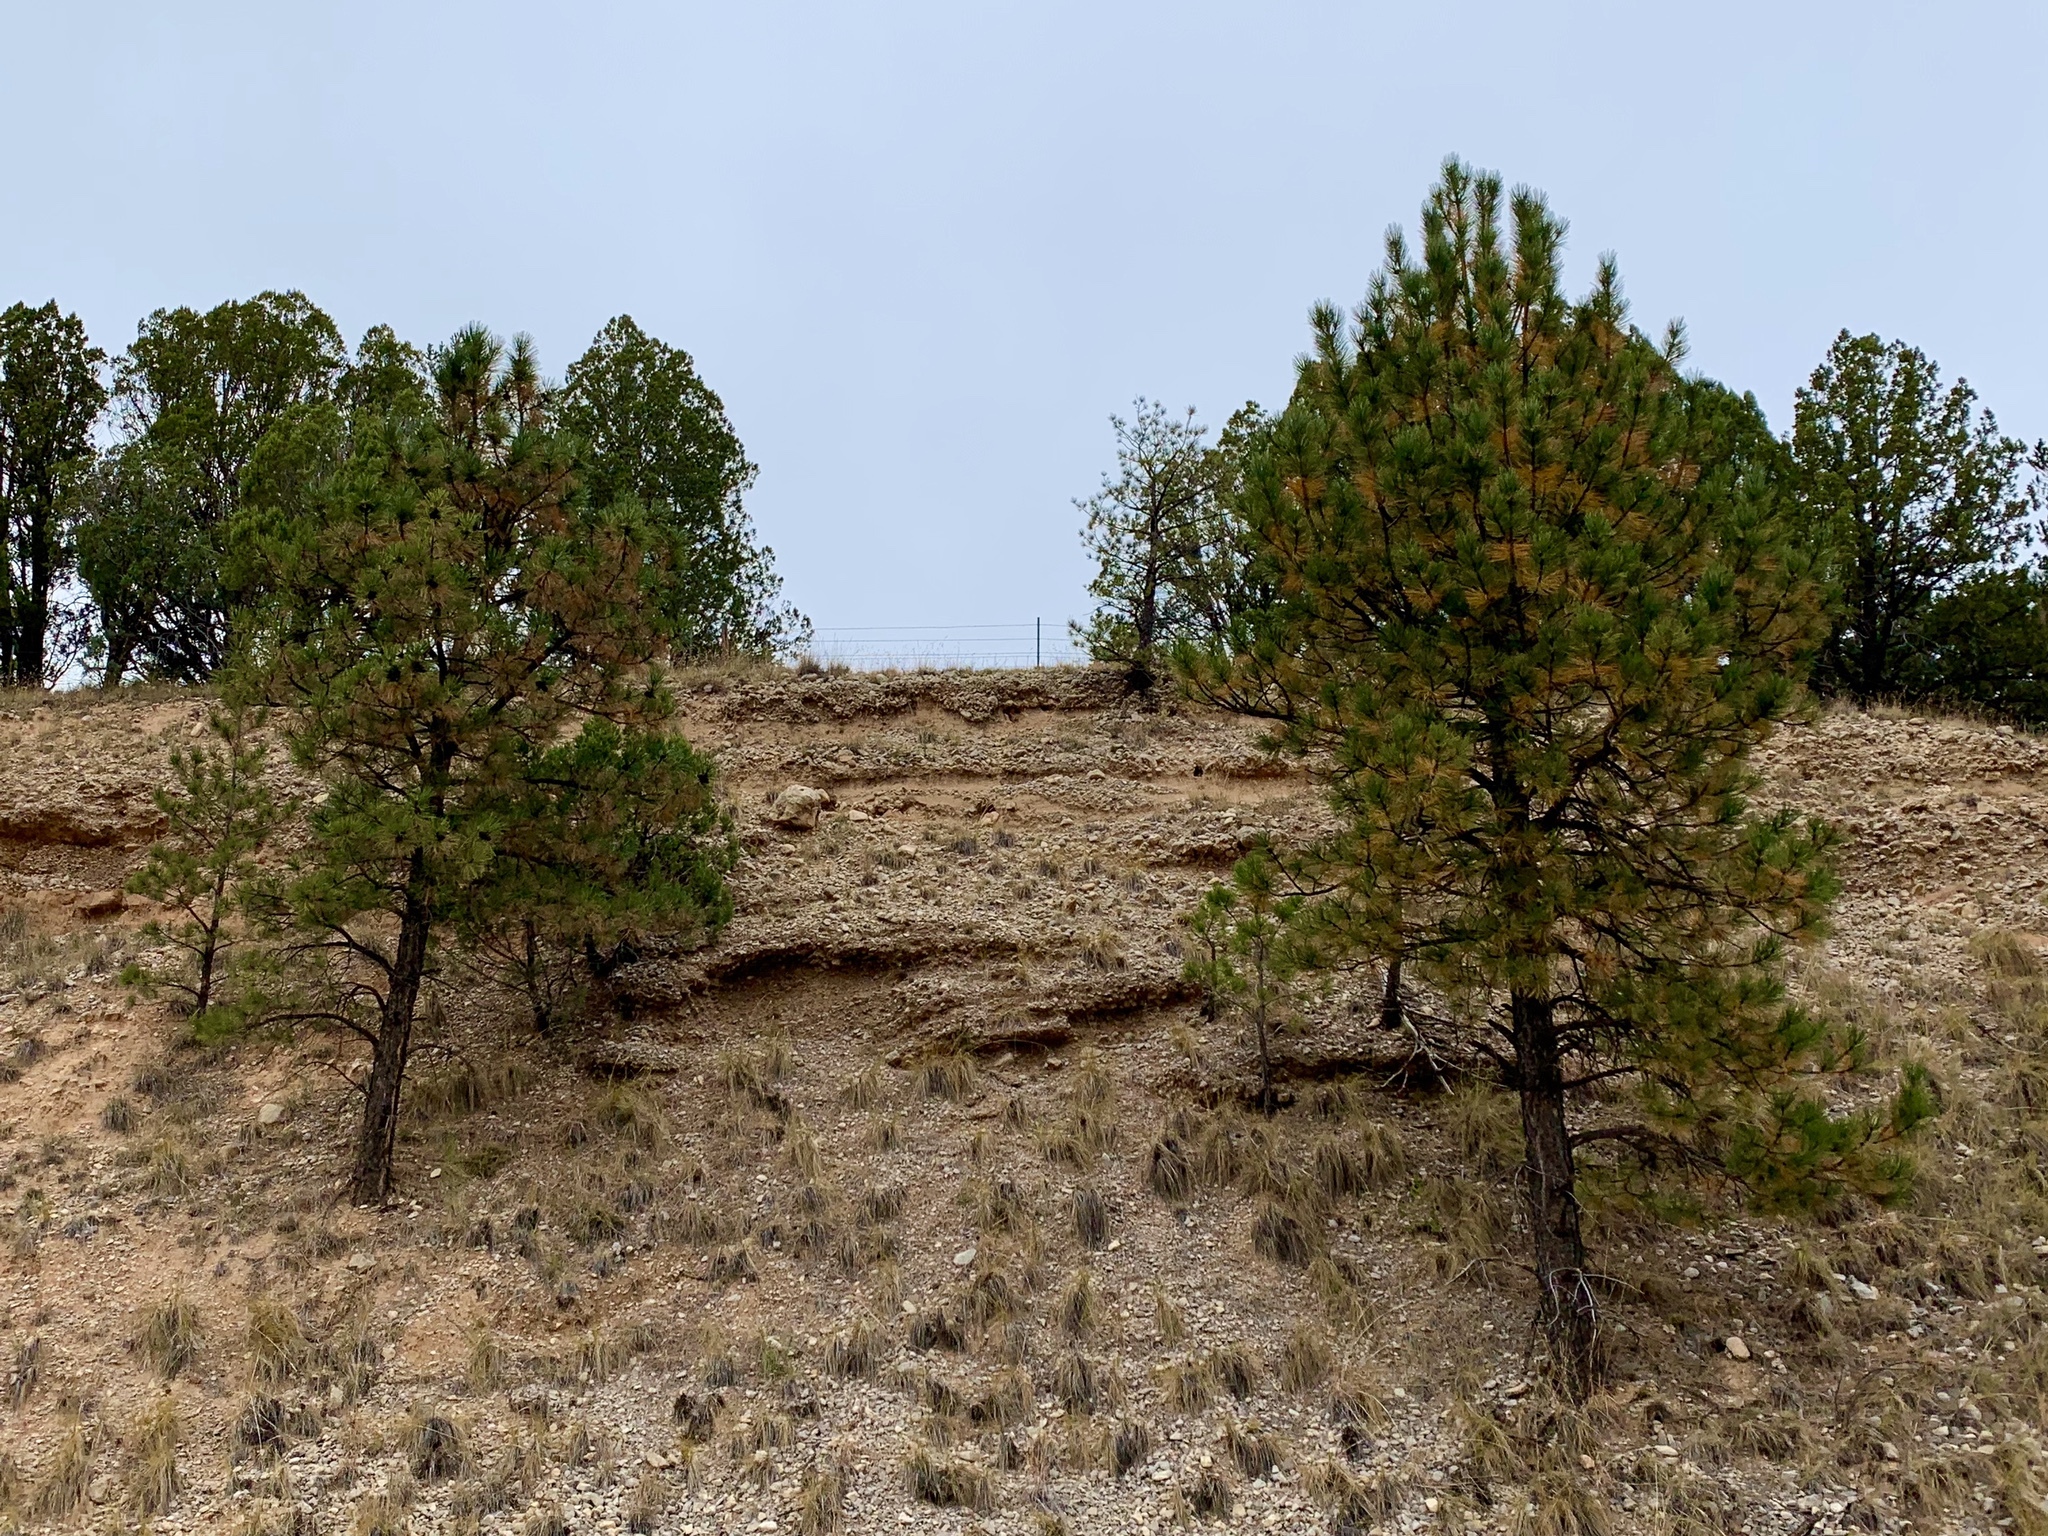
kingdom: Plantae
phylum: Tracheophyta
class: Pinopsida
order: Pinales
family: Pinaceae
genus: Pinus
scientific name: Pinus ponderosa
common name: Western yellow-pine
